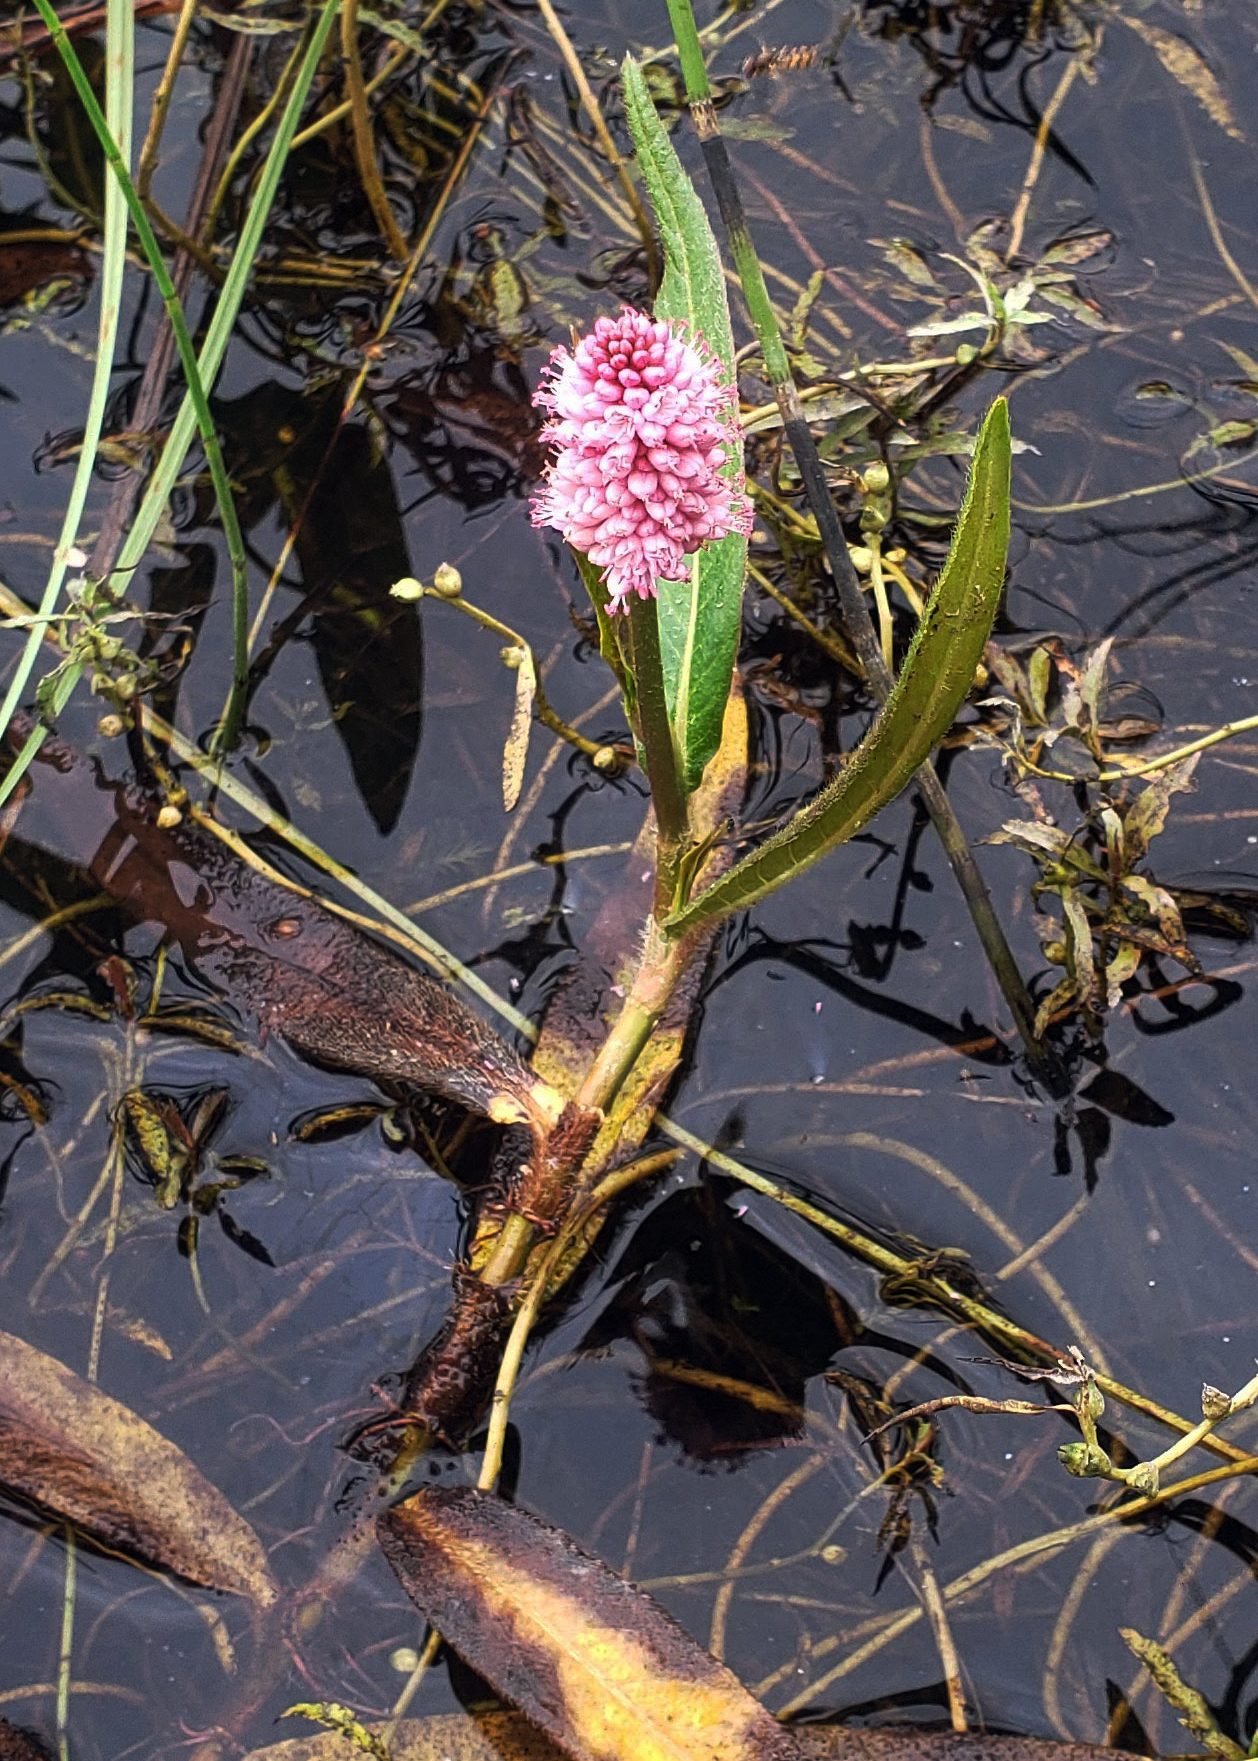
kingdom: Plantae
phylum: Tracheophyta
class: Magnoliopsida
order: Caryophyllales
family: Polygonaceae
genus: Persicaria
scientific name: Persicaria amphibia
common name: Amphibious bistort
